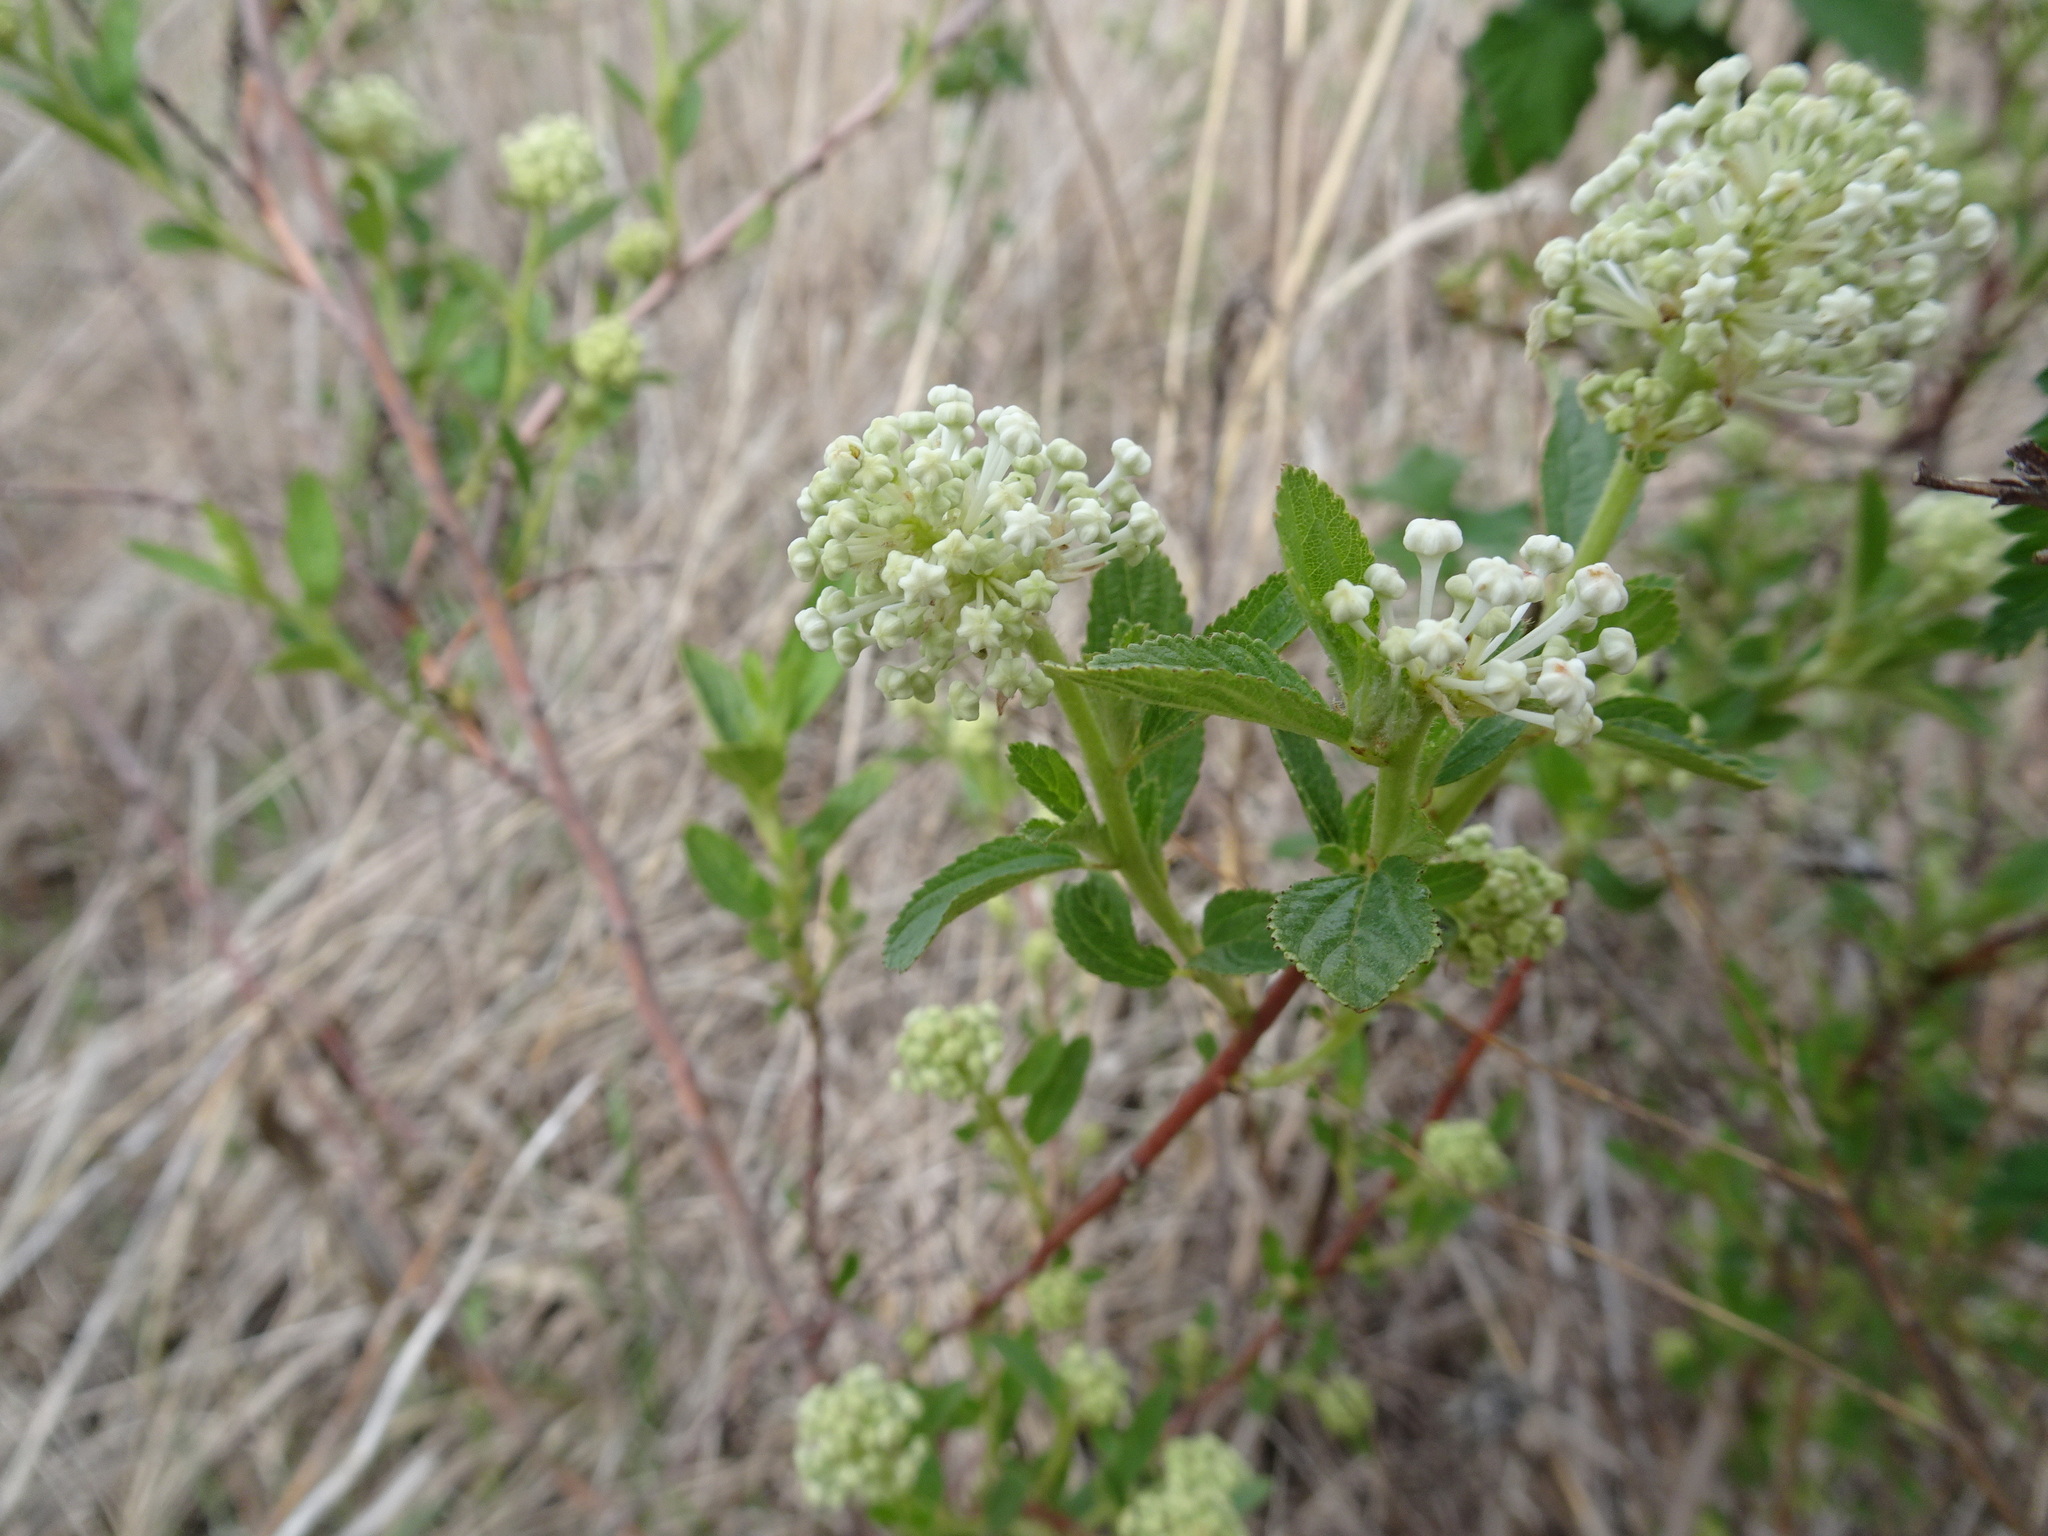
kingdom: Plantae
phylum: Tracheophyta
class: Magnoliopsida
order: Rosales
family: Rhamnaceae
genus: Ceanothus
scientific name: Ceanothus herbaceus
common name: Inland ceanothus
